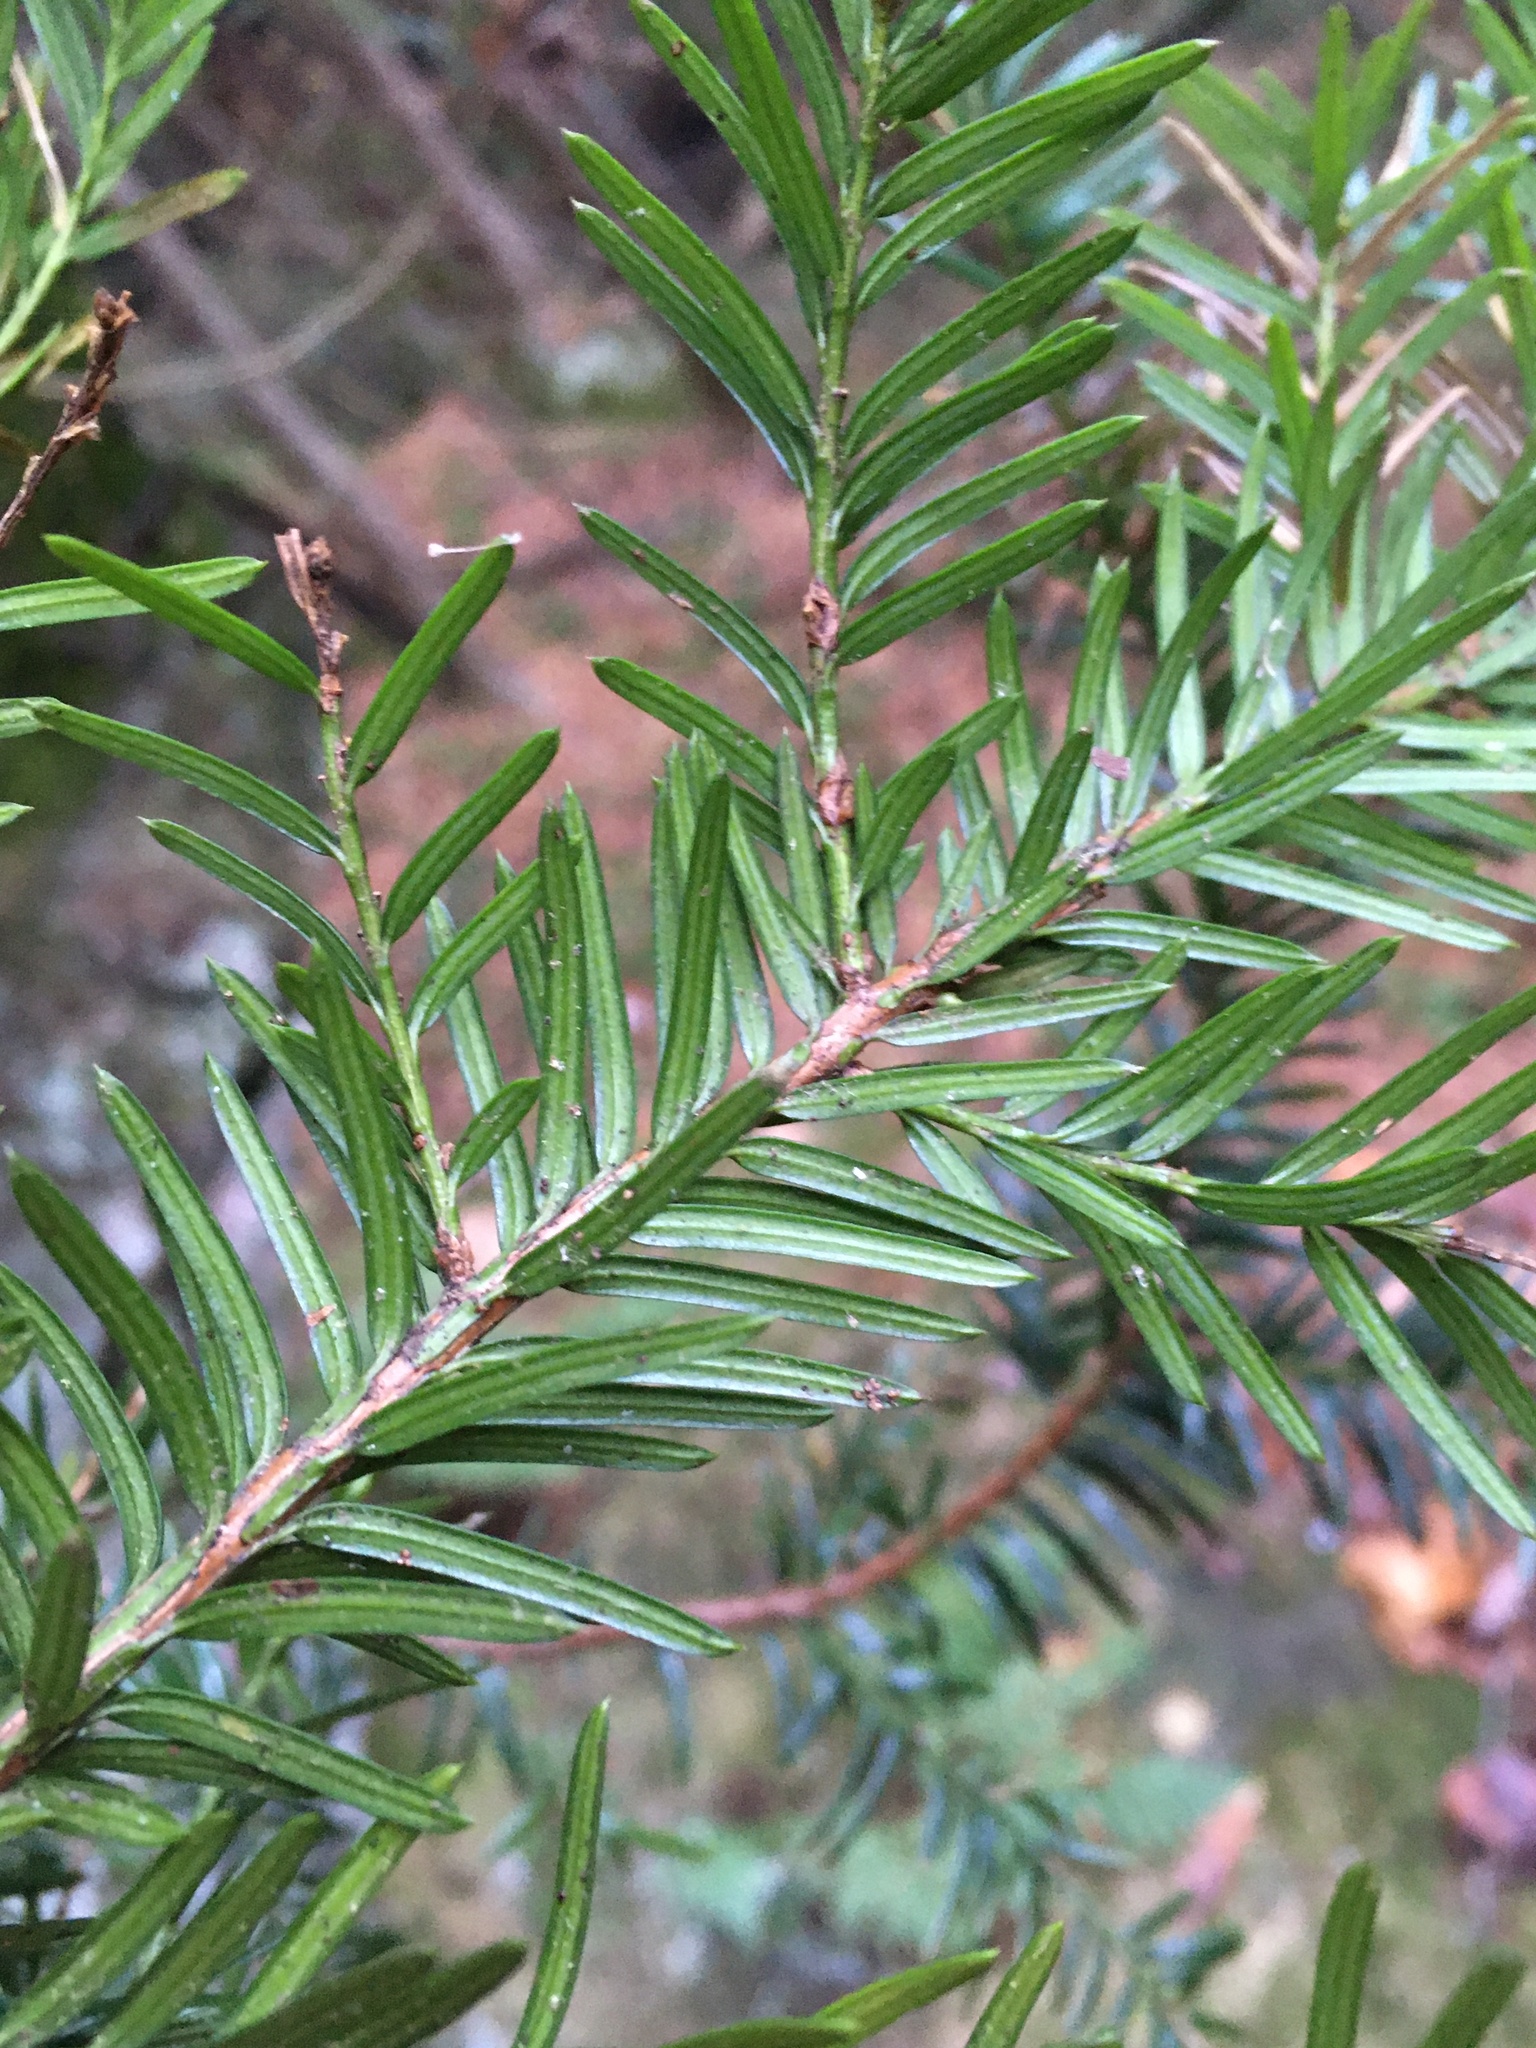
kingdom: Plantae
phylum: Tracheophyta
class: Pinopsida
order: Pinales
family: Taxaceae
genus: Taxus
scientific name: Taxus canadensis
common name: American yew
